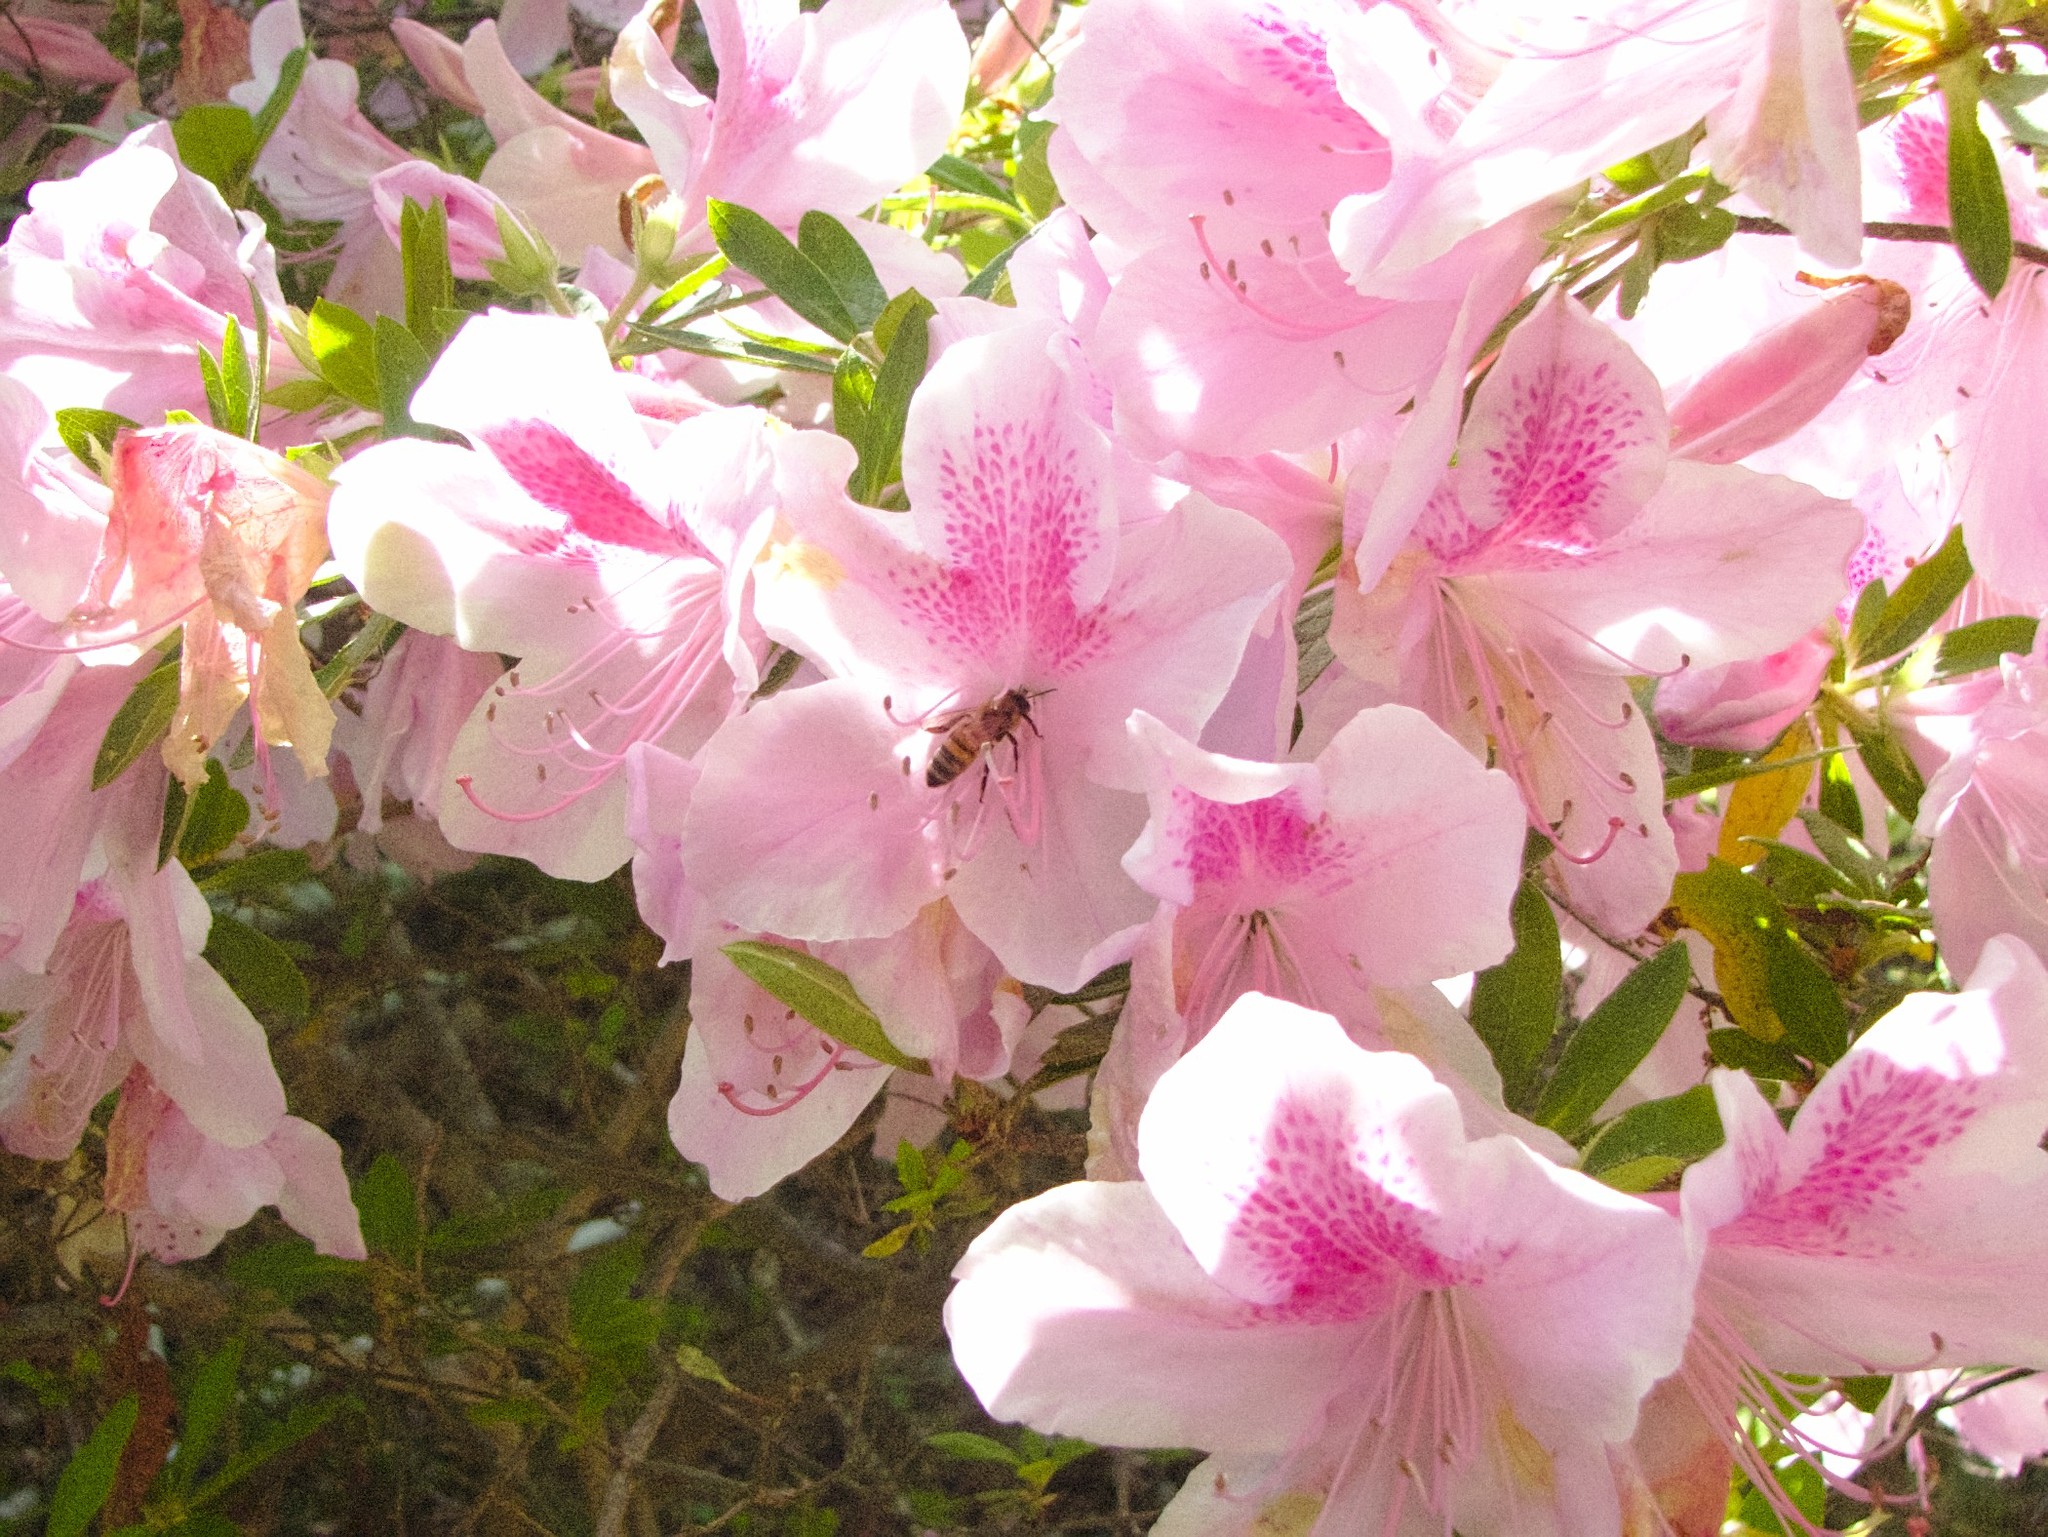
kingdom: Animalia
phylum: Arthropoda
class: Insecta
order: Hymenoptera
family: Apidae
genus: Apis
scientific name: Apis mellifera
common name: Honey bee
